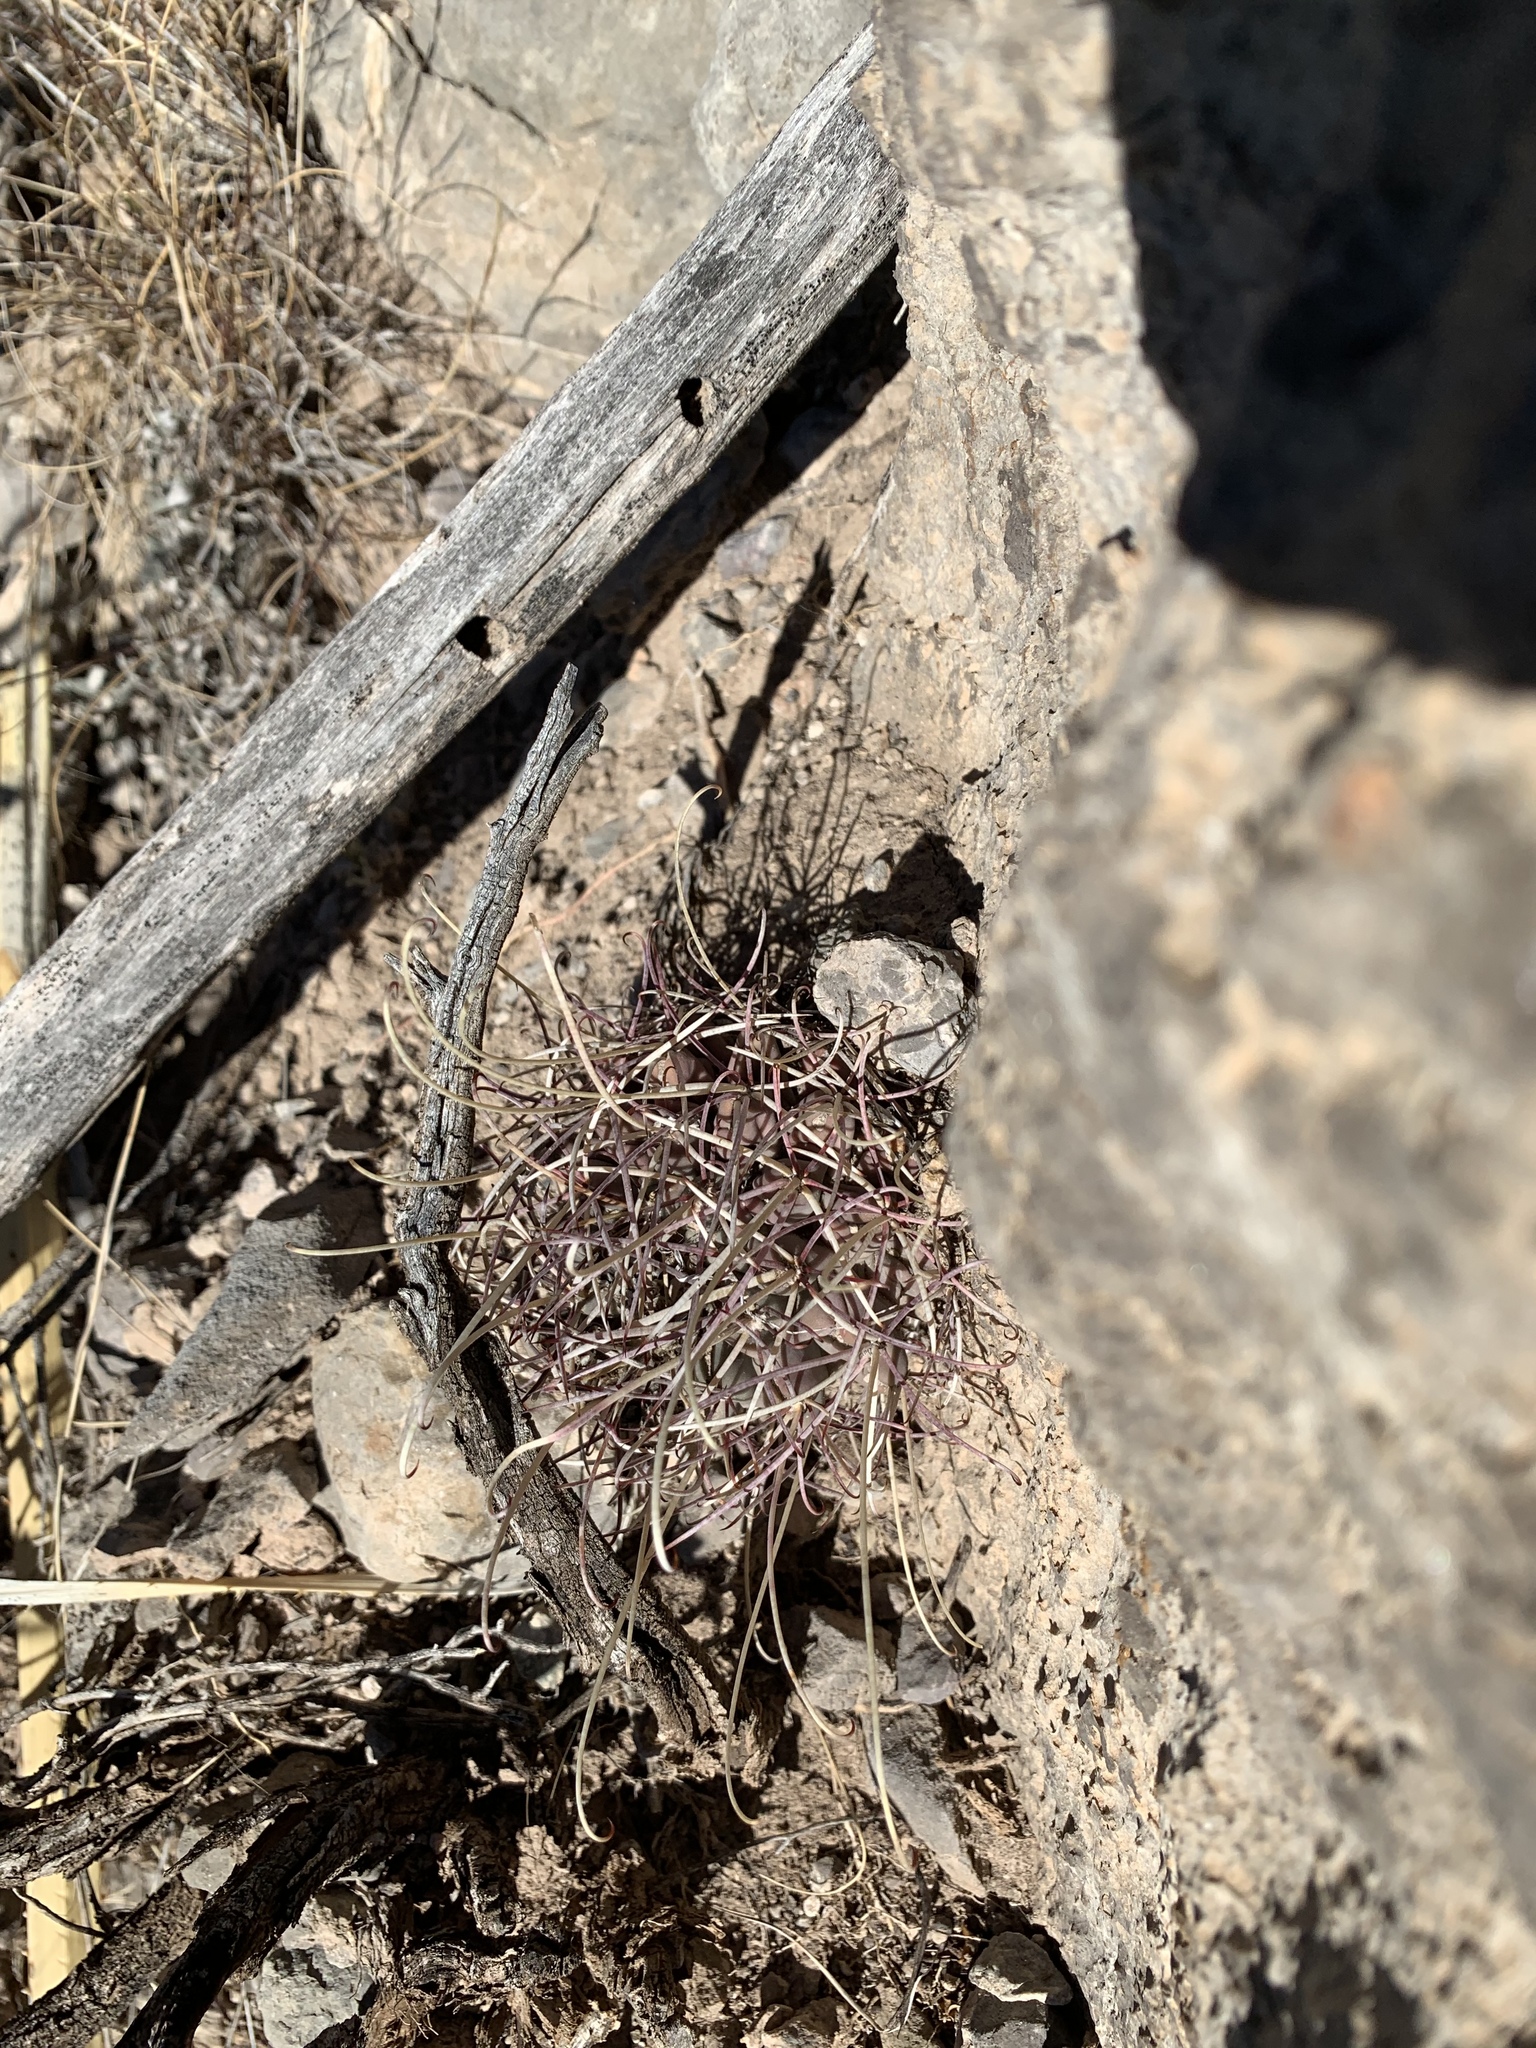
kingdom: Plantae
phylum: Tracheophyta
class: Magnoliopsida
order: Caryophyllales
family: Cactaceae
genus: Ferocactus
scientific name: Ferocactus uncinatus
